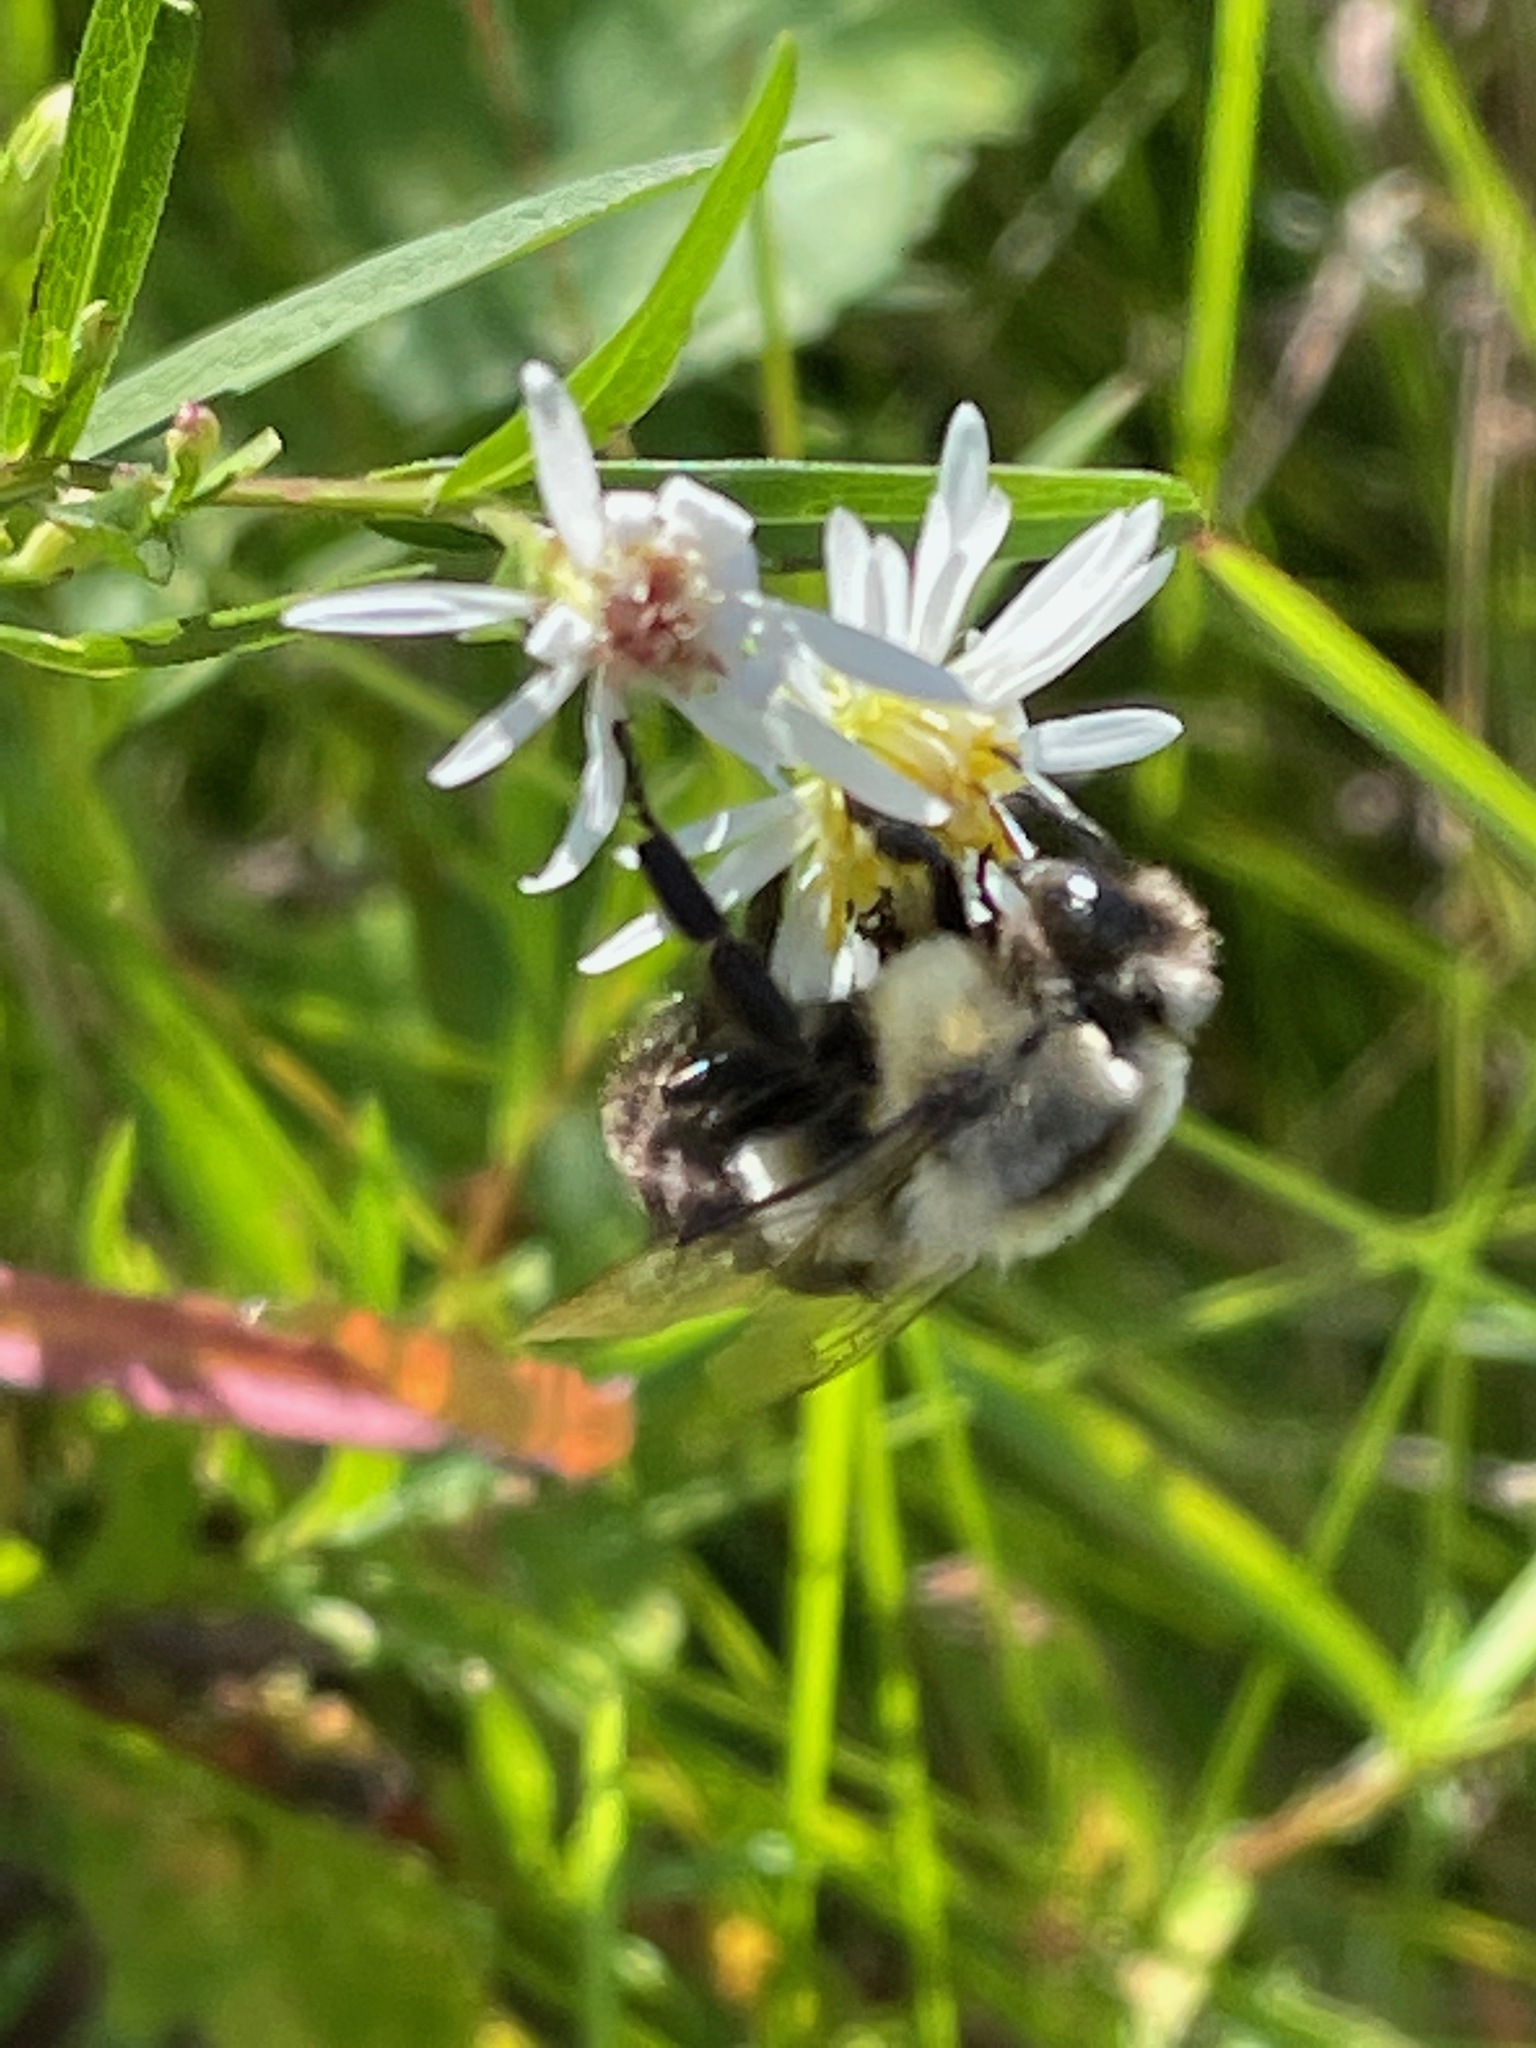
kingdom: Animalia
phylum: Arthropoda
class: Insecta
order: Hymenoptera
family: Apidae
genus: Bombus
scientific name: Bombus impatiens
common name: Common eastern bumble bee
